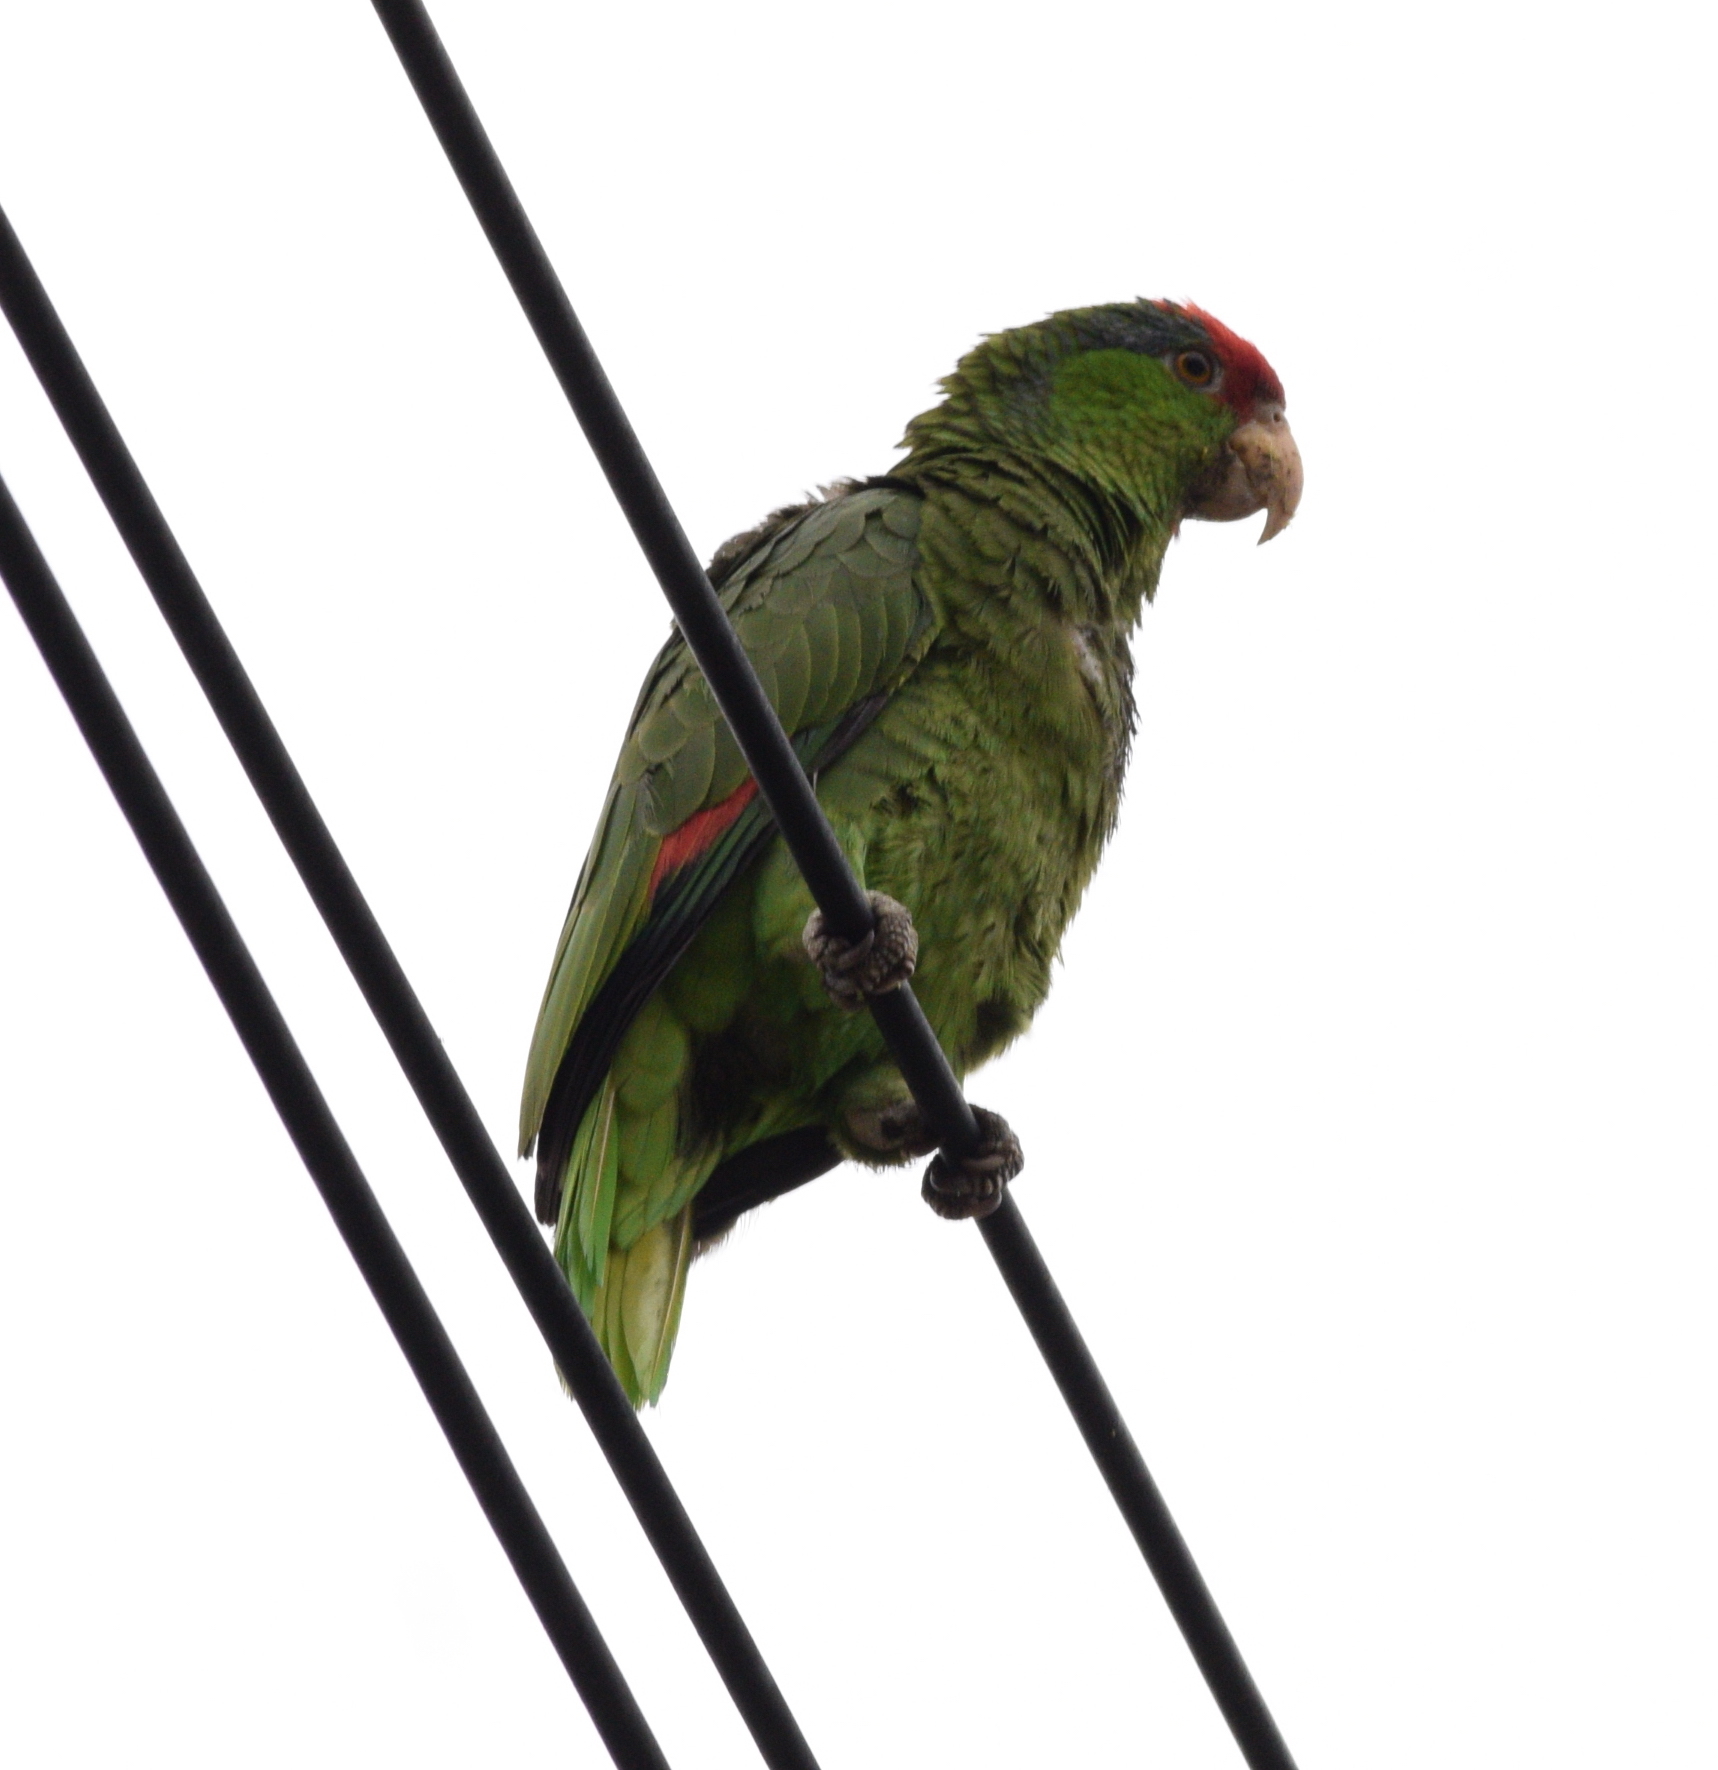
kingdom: Animalia
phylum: Chordata
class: Aves
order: Psittaciformes
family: Psittacidae
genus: Amazona
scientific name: Amazona viridigenalis
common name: Red-crowned amazon
